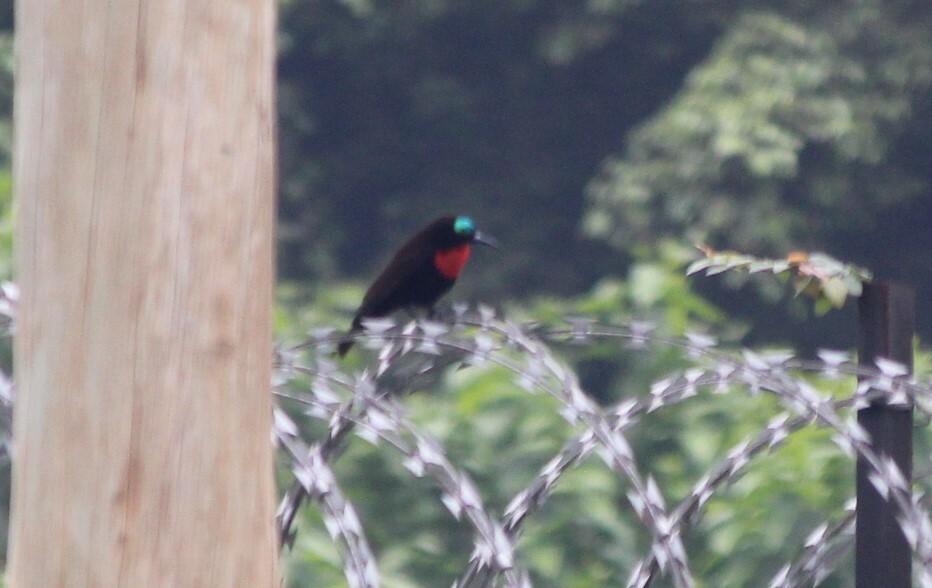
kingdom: Animalia
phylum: Chordata
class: Aves
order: Passeriformes
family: Nectariniidae
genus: Chalcomitra
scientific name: Chalcomitra senegalensis
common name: Scarlet-chested sunbird
